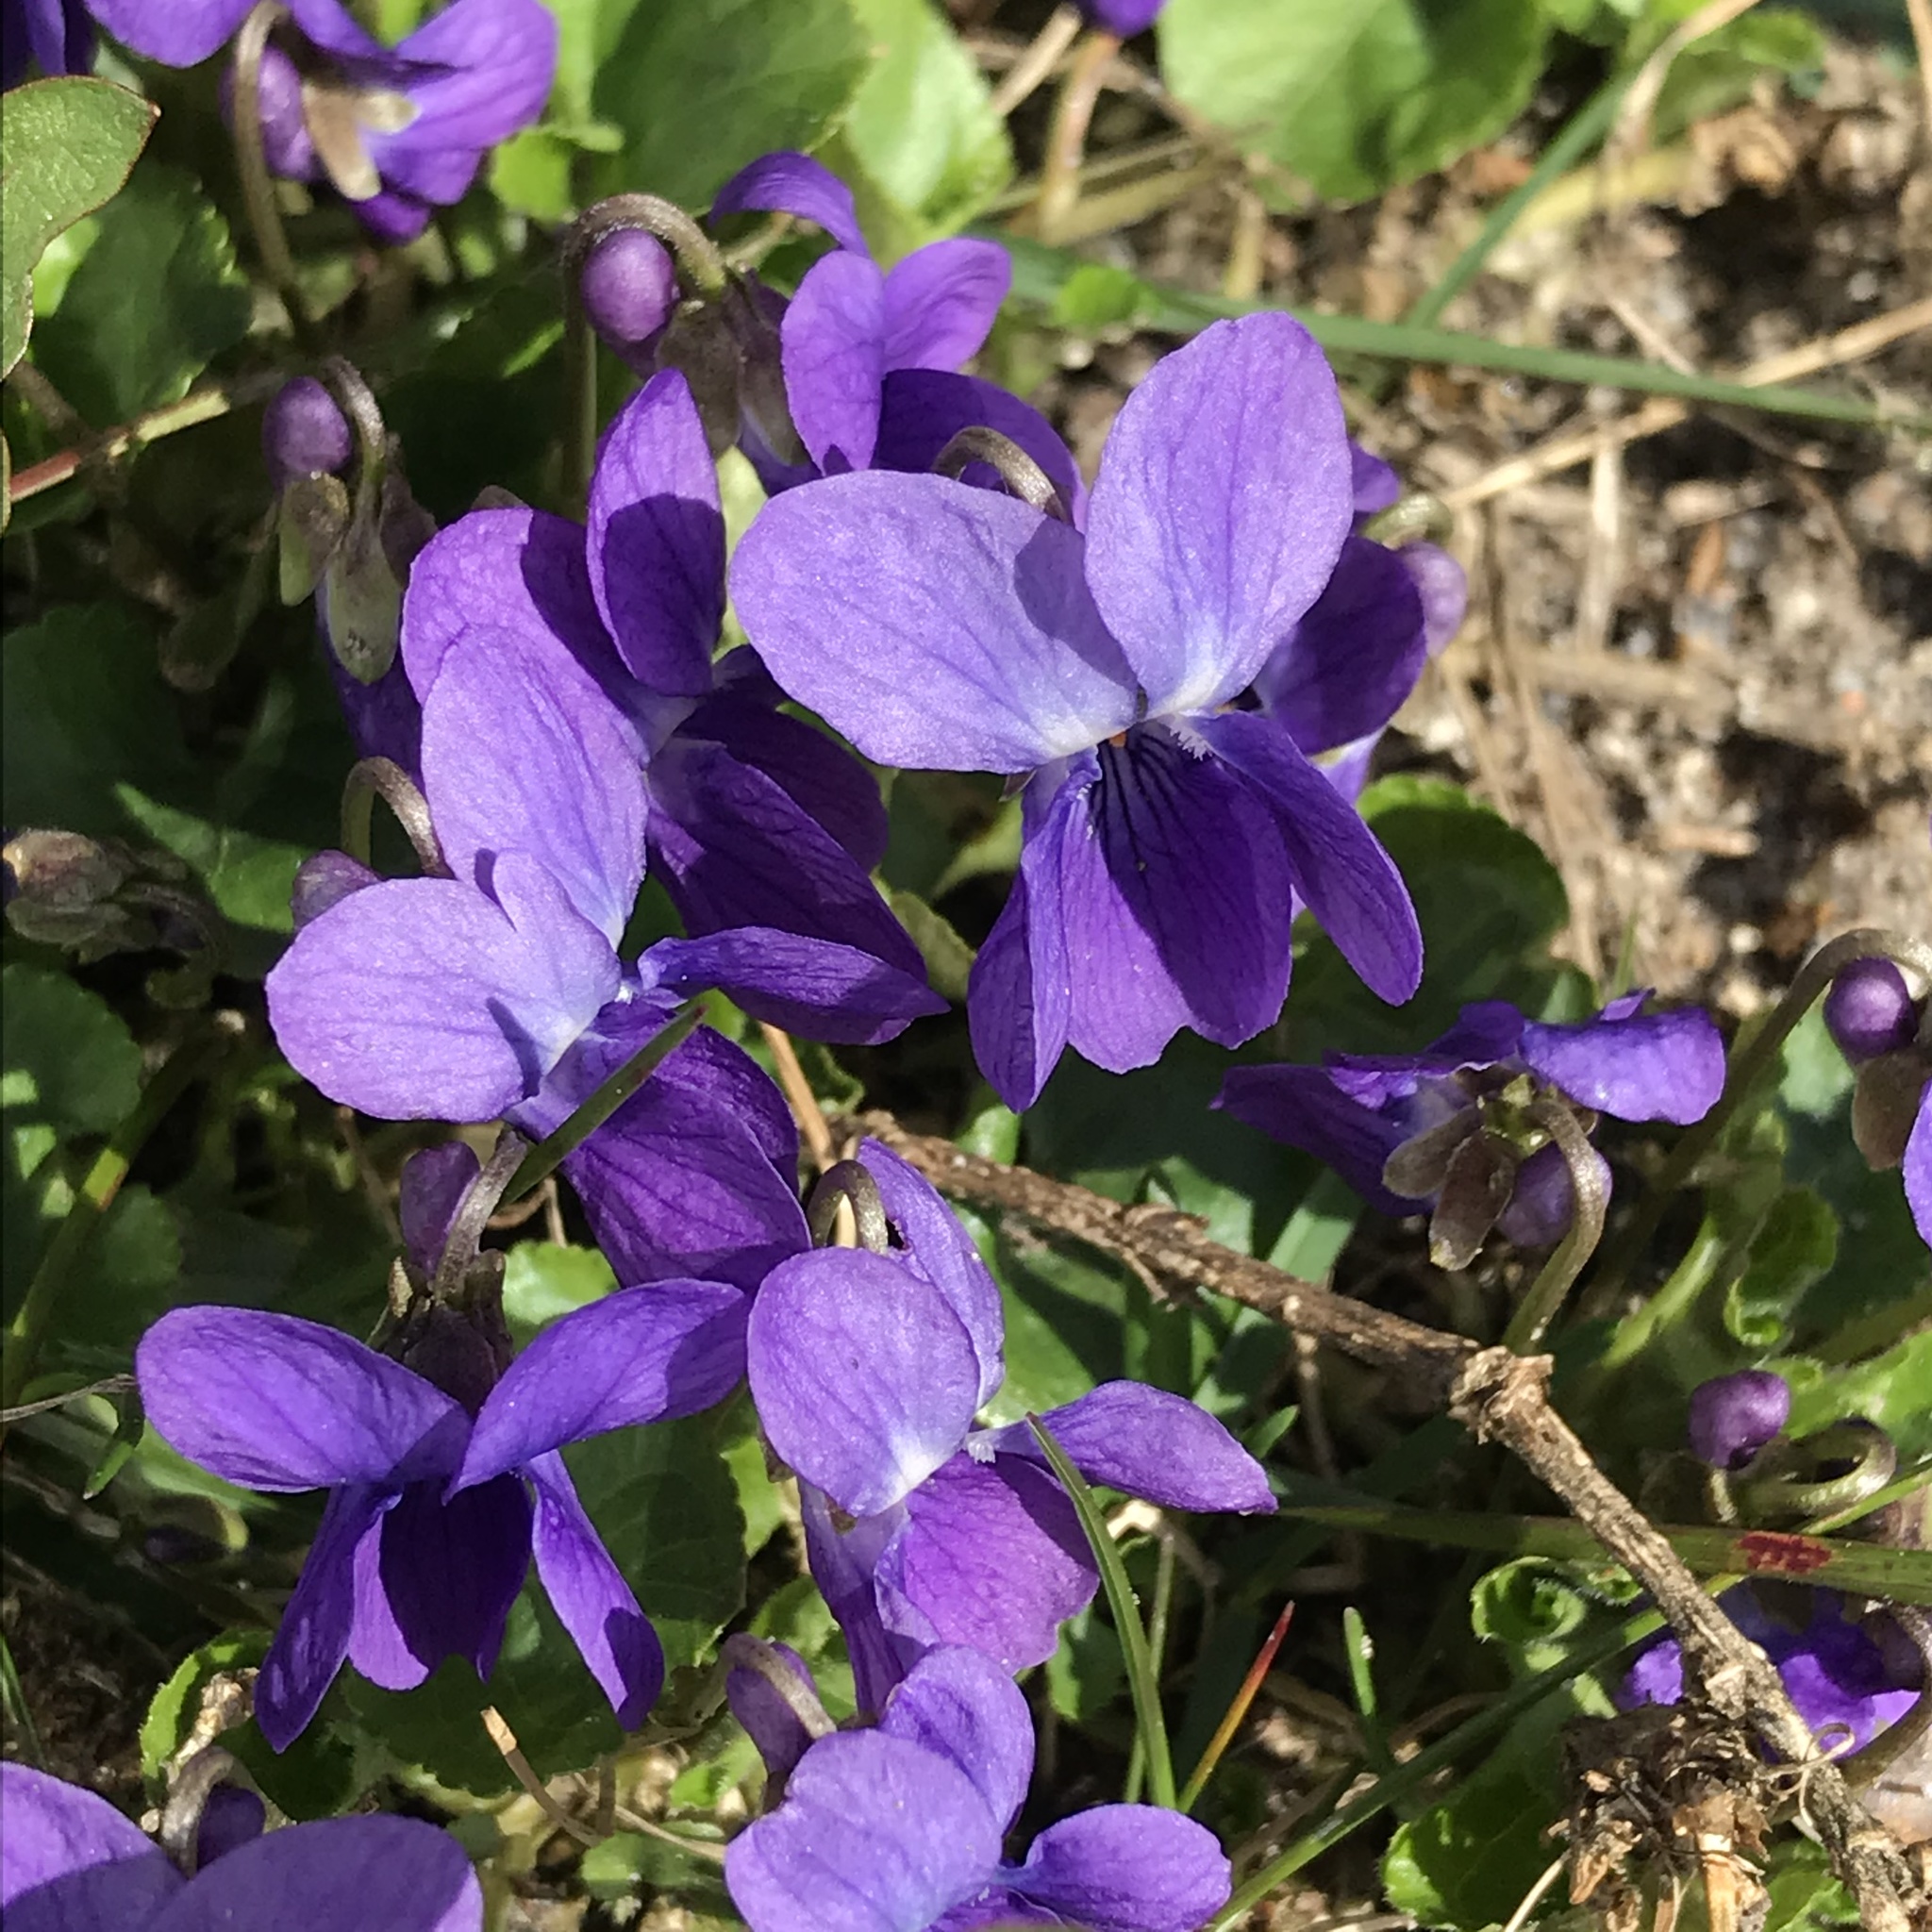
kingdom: Plantae
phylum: Tracheophyta
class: Magnoliopsida
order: Malpighiales
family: Violaceae
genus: Viola
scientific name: Viola odorata
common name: Sweet violet
